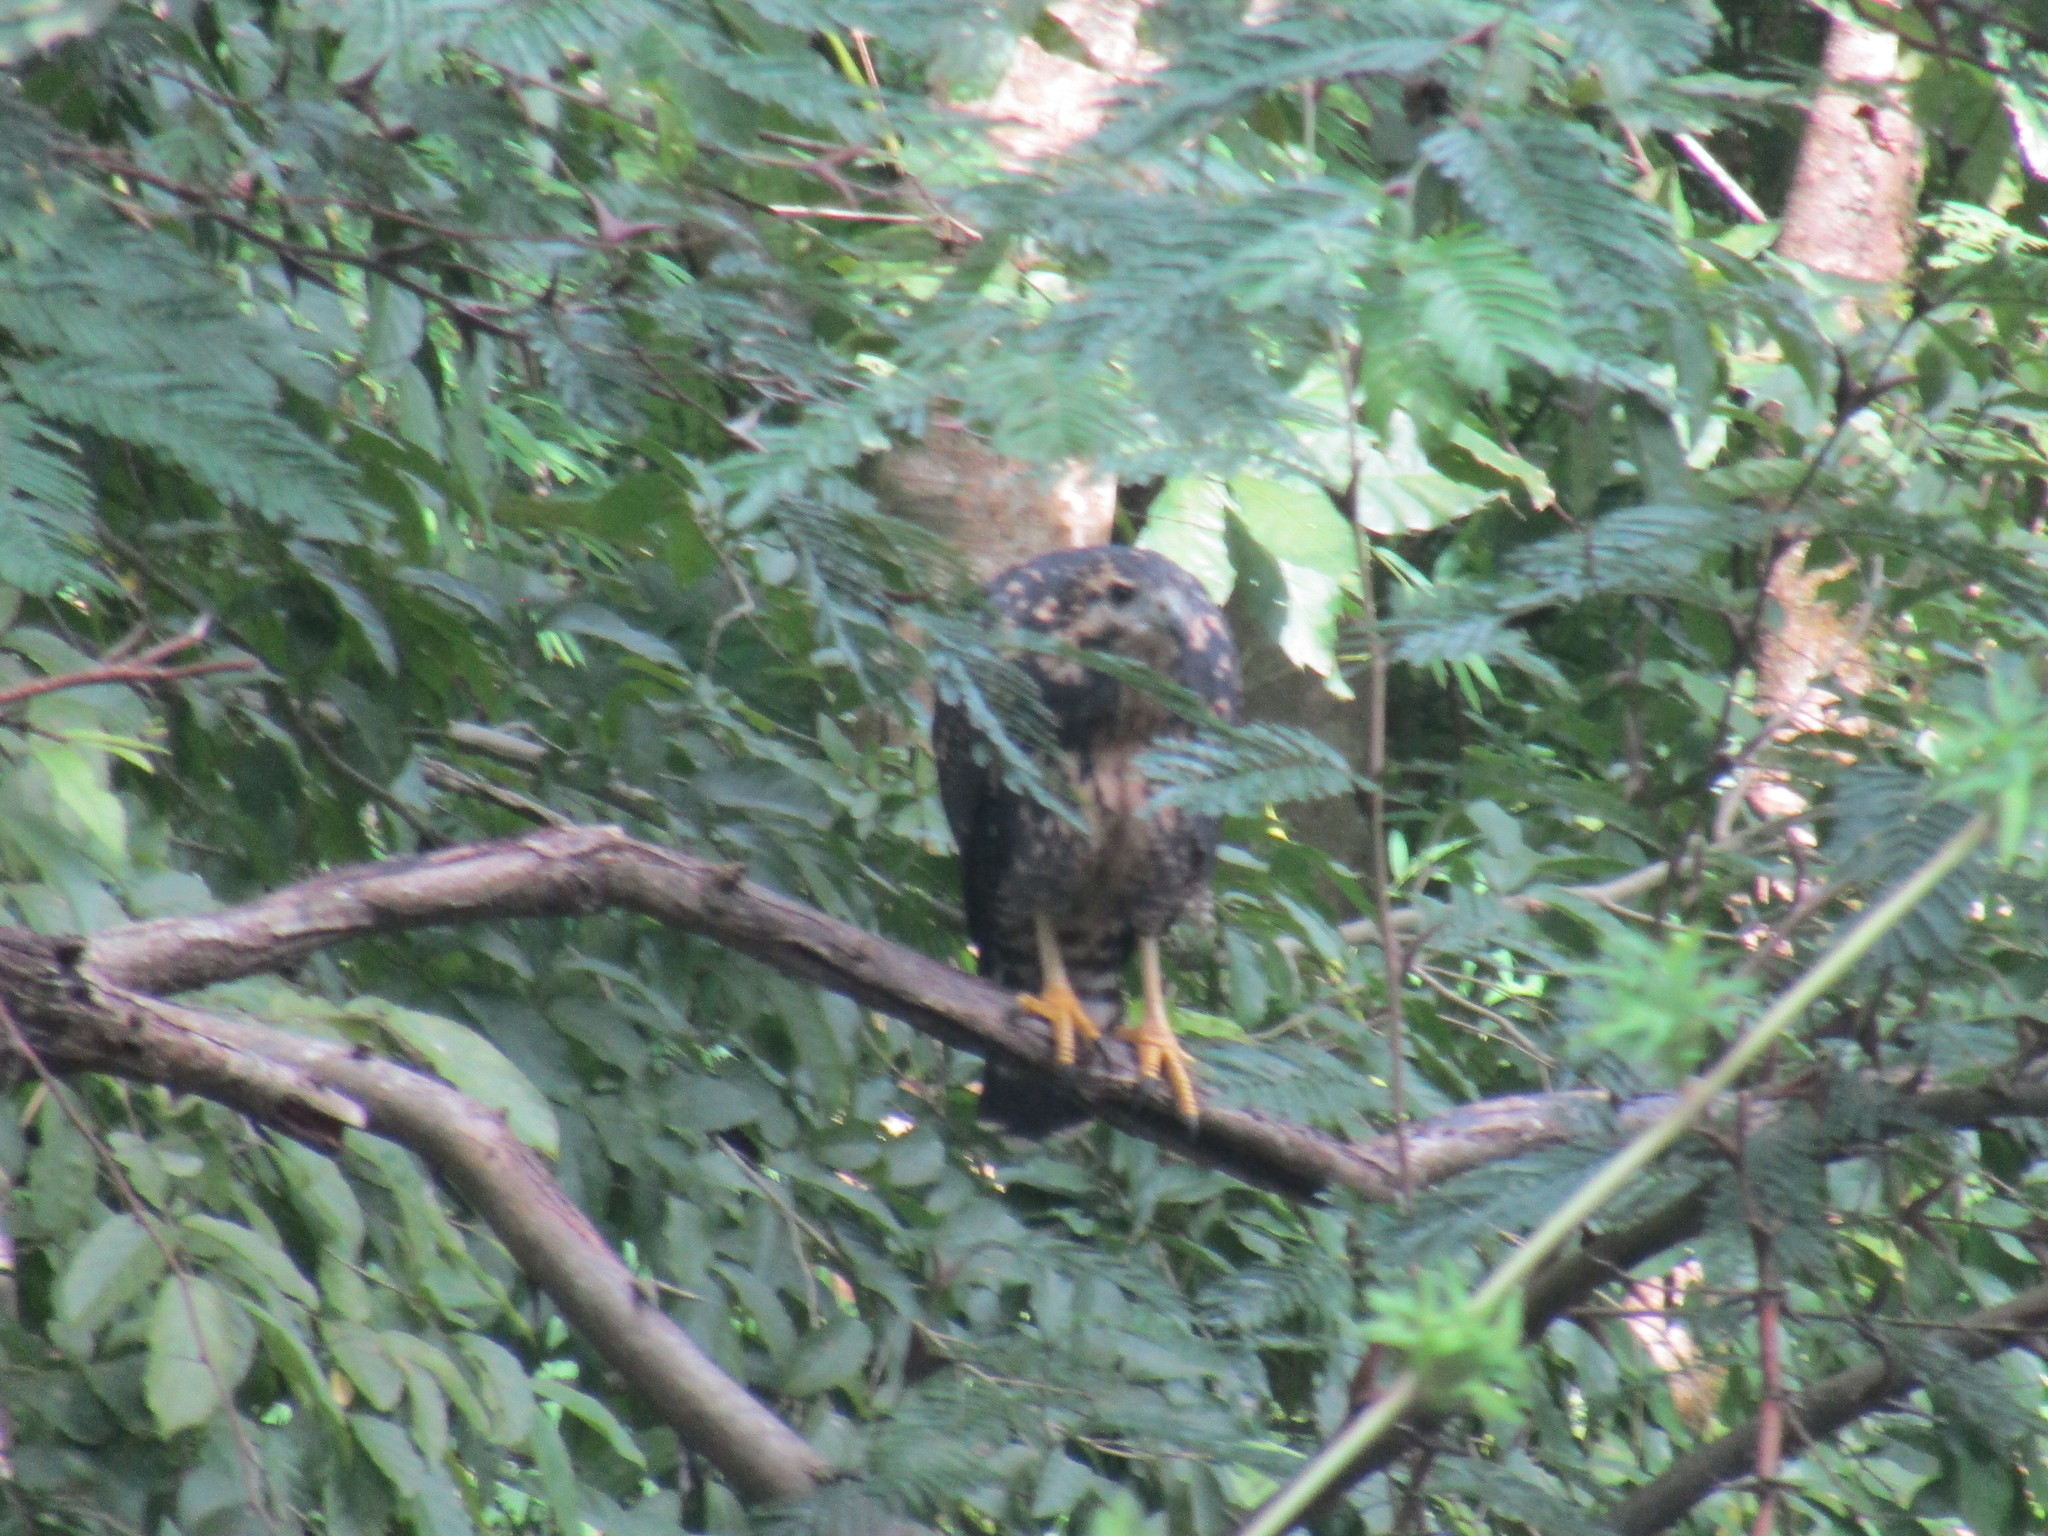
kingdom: Animalia
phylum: Chordata
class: Aves
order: Accipitriformes
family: Accipitridae
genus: Buteogallus
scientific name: Buteogallus anthracinus
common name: Common black hawk
